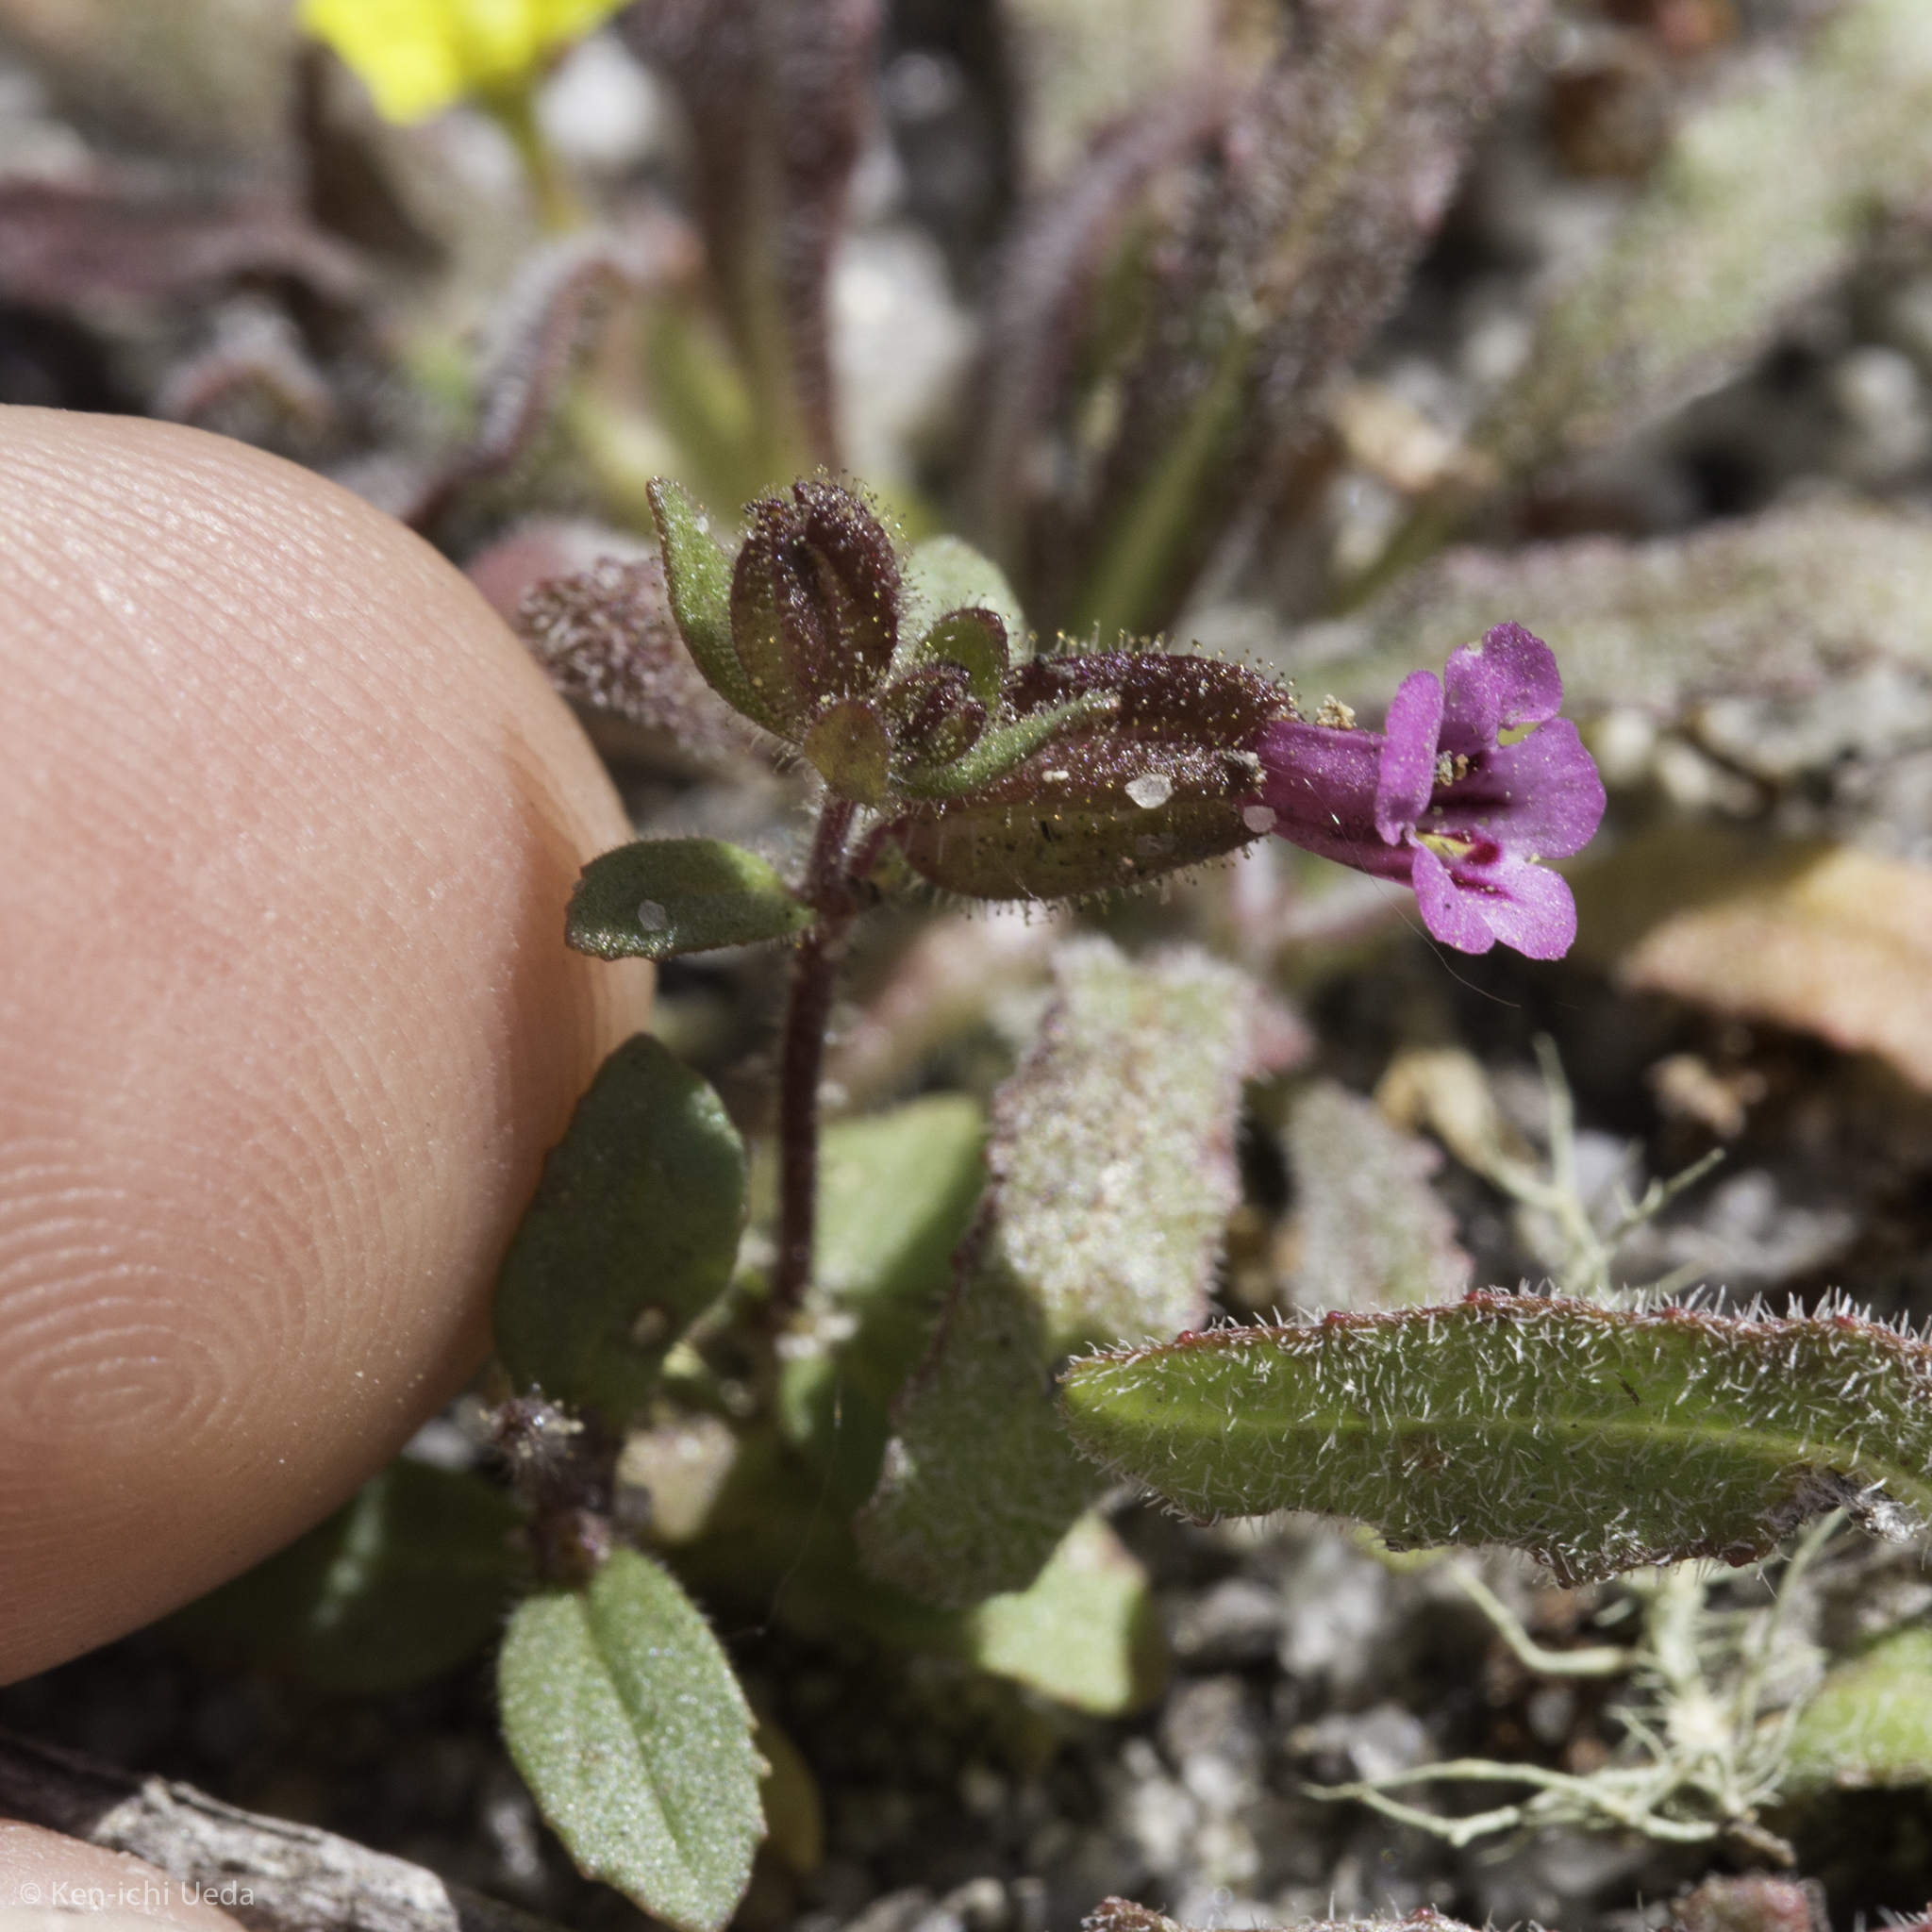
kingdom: Plantae
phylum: Tracheophyta
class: Magnoliopsida
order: Lamiales
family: Phrymaceae
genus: Diplacus
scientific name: Diplacus rattanii
